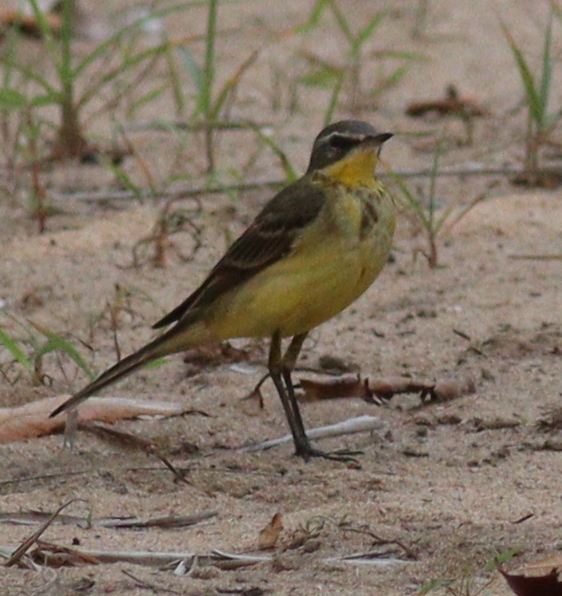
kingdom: Animalia
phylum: Chordata
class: Aves
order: Passeriformes
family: Motacillidae
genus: Motacilla
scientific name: Motacilla flava
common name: Western yellow wagtail
